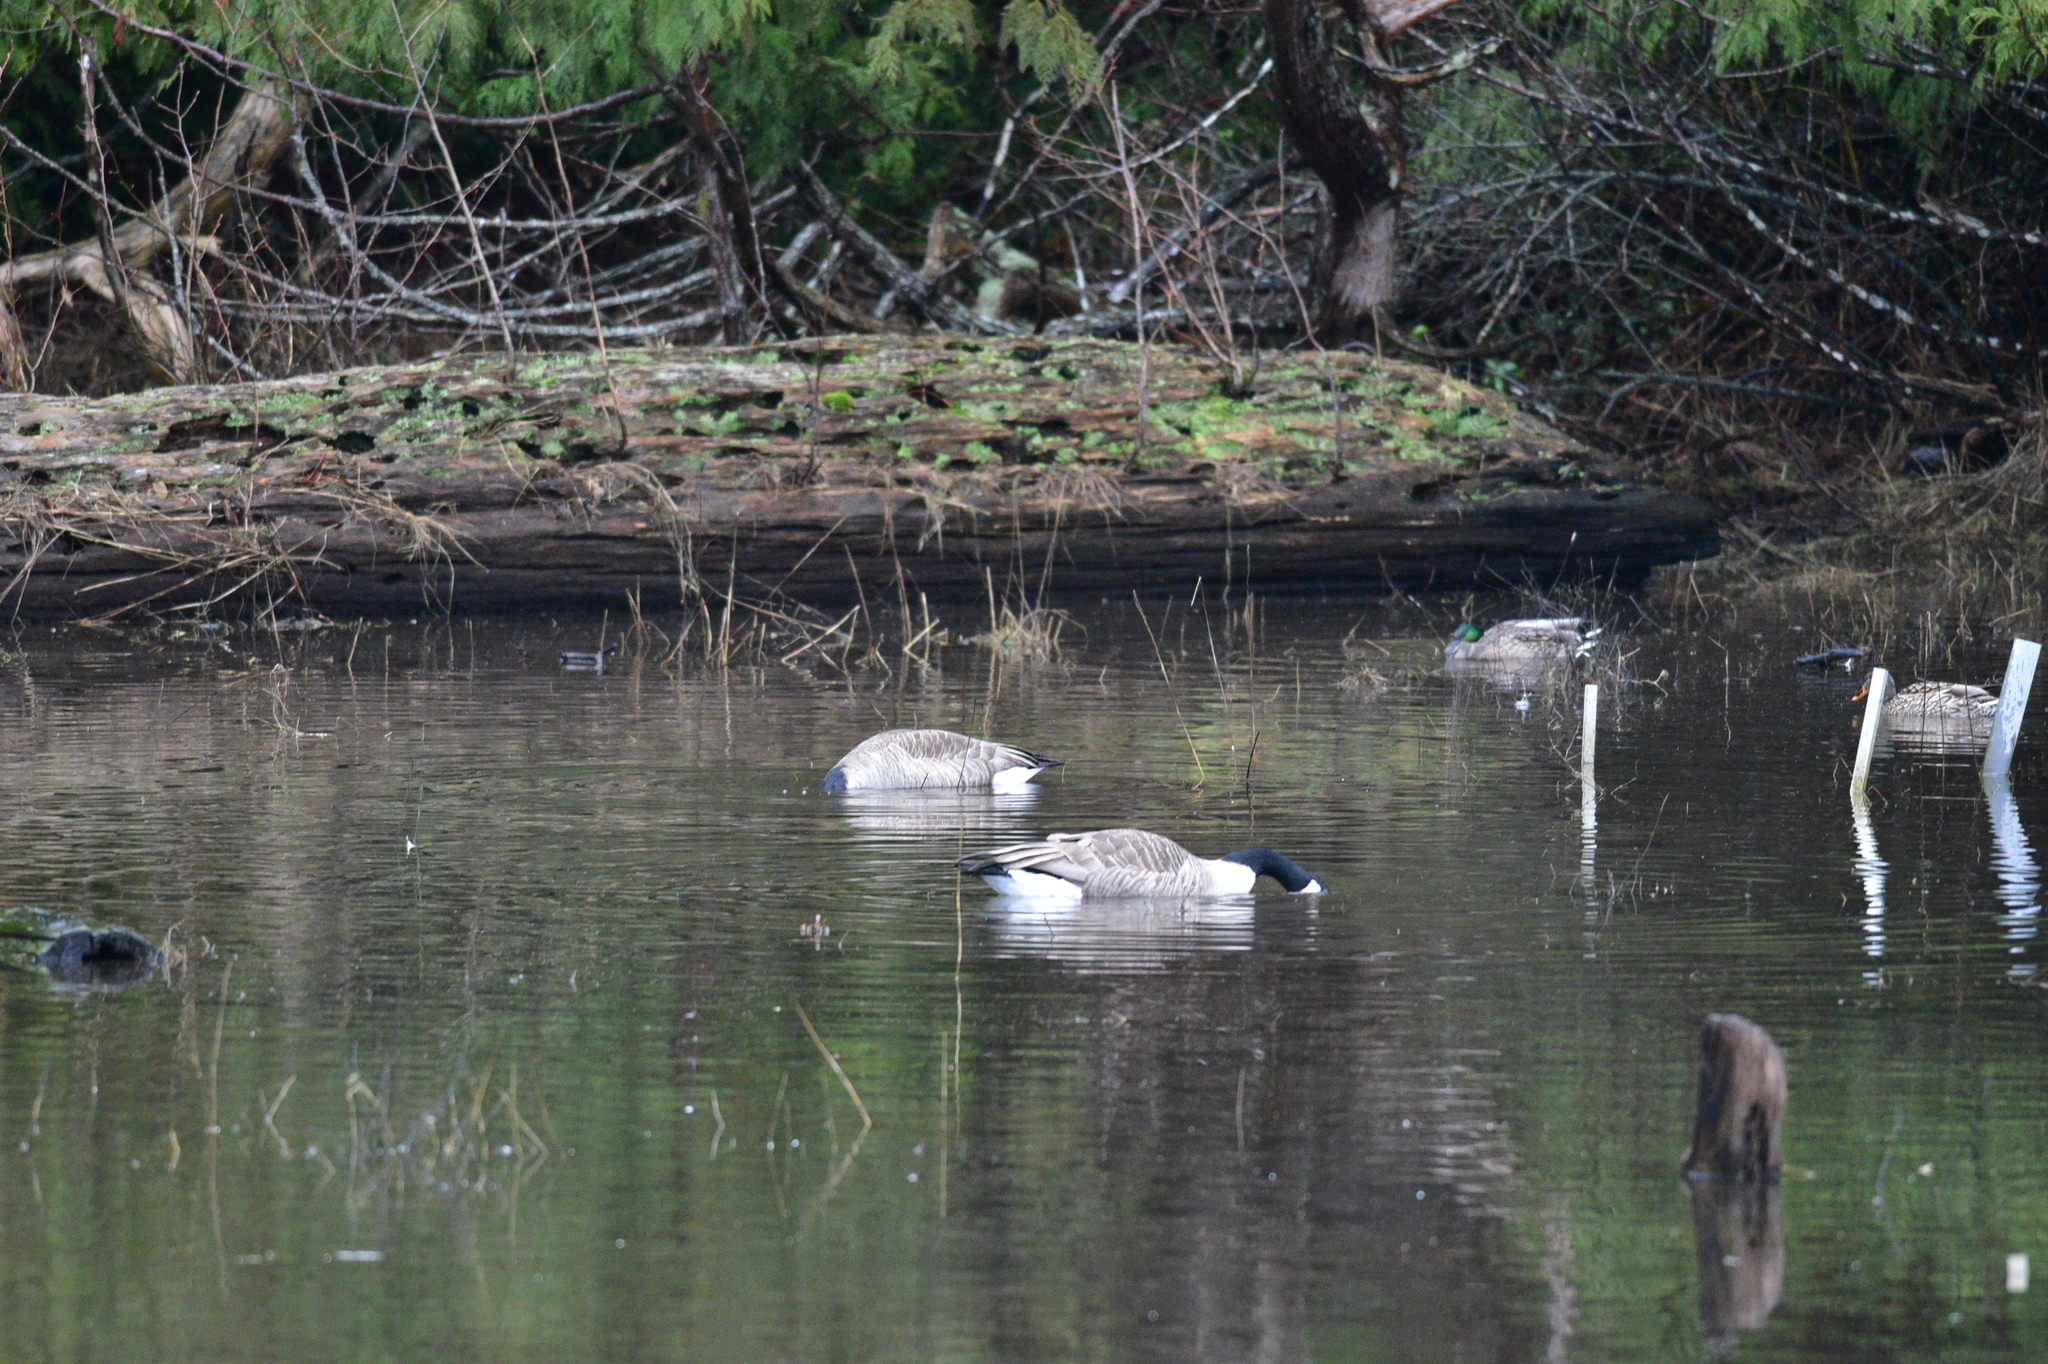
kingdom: Animalia
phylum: Chordata
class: Aves
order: Anseriformes
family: Anatidae
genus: Branta
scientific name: Branta canadensis
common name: Canada goose
